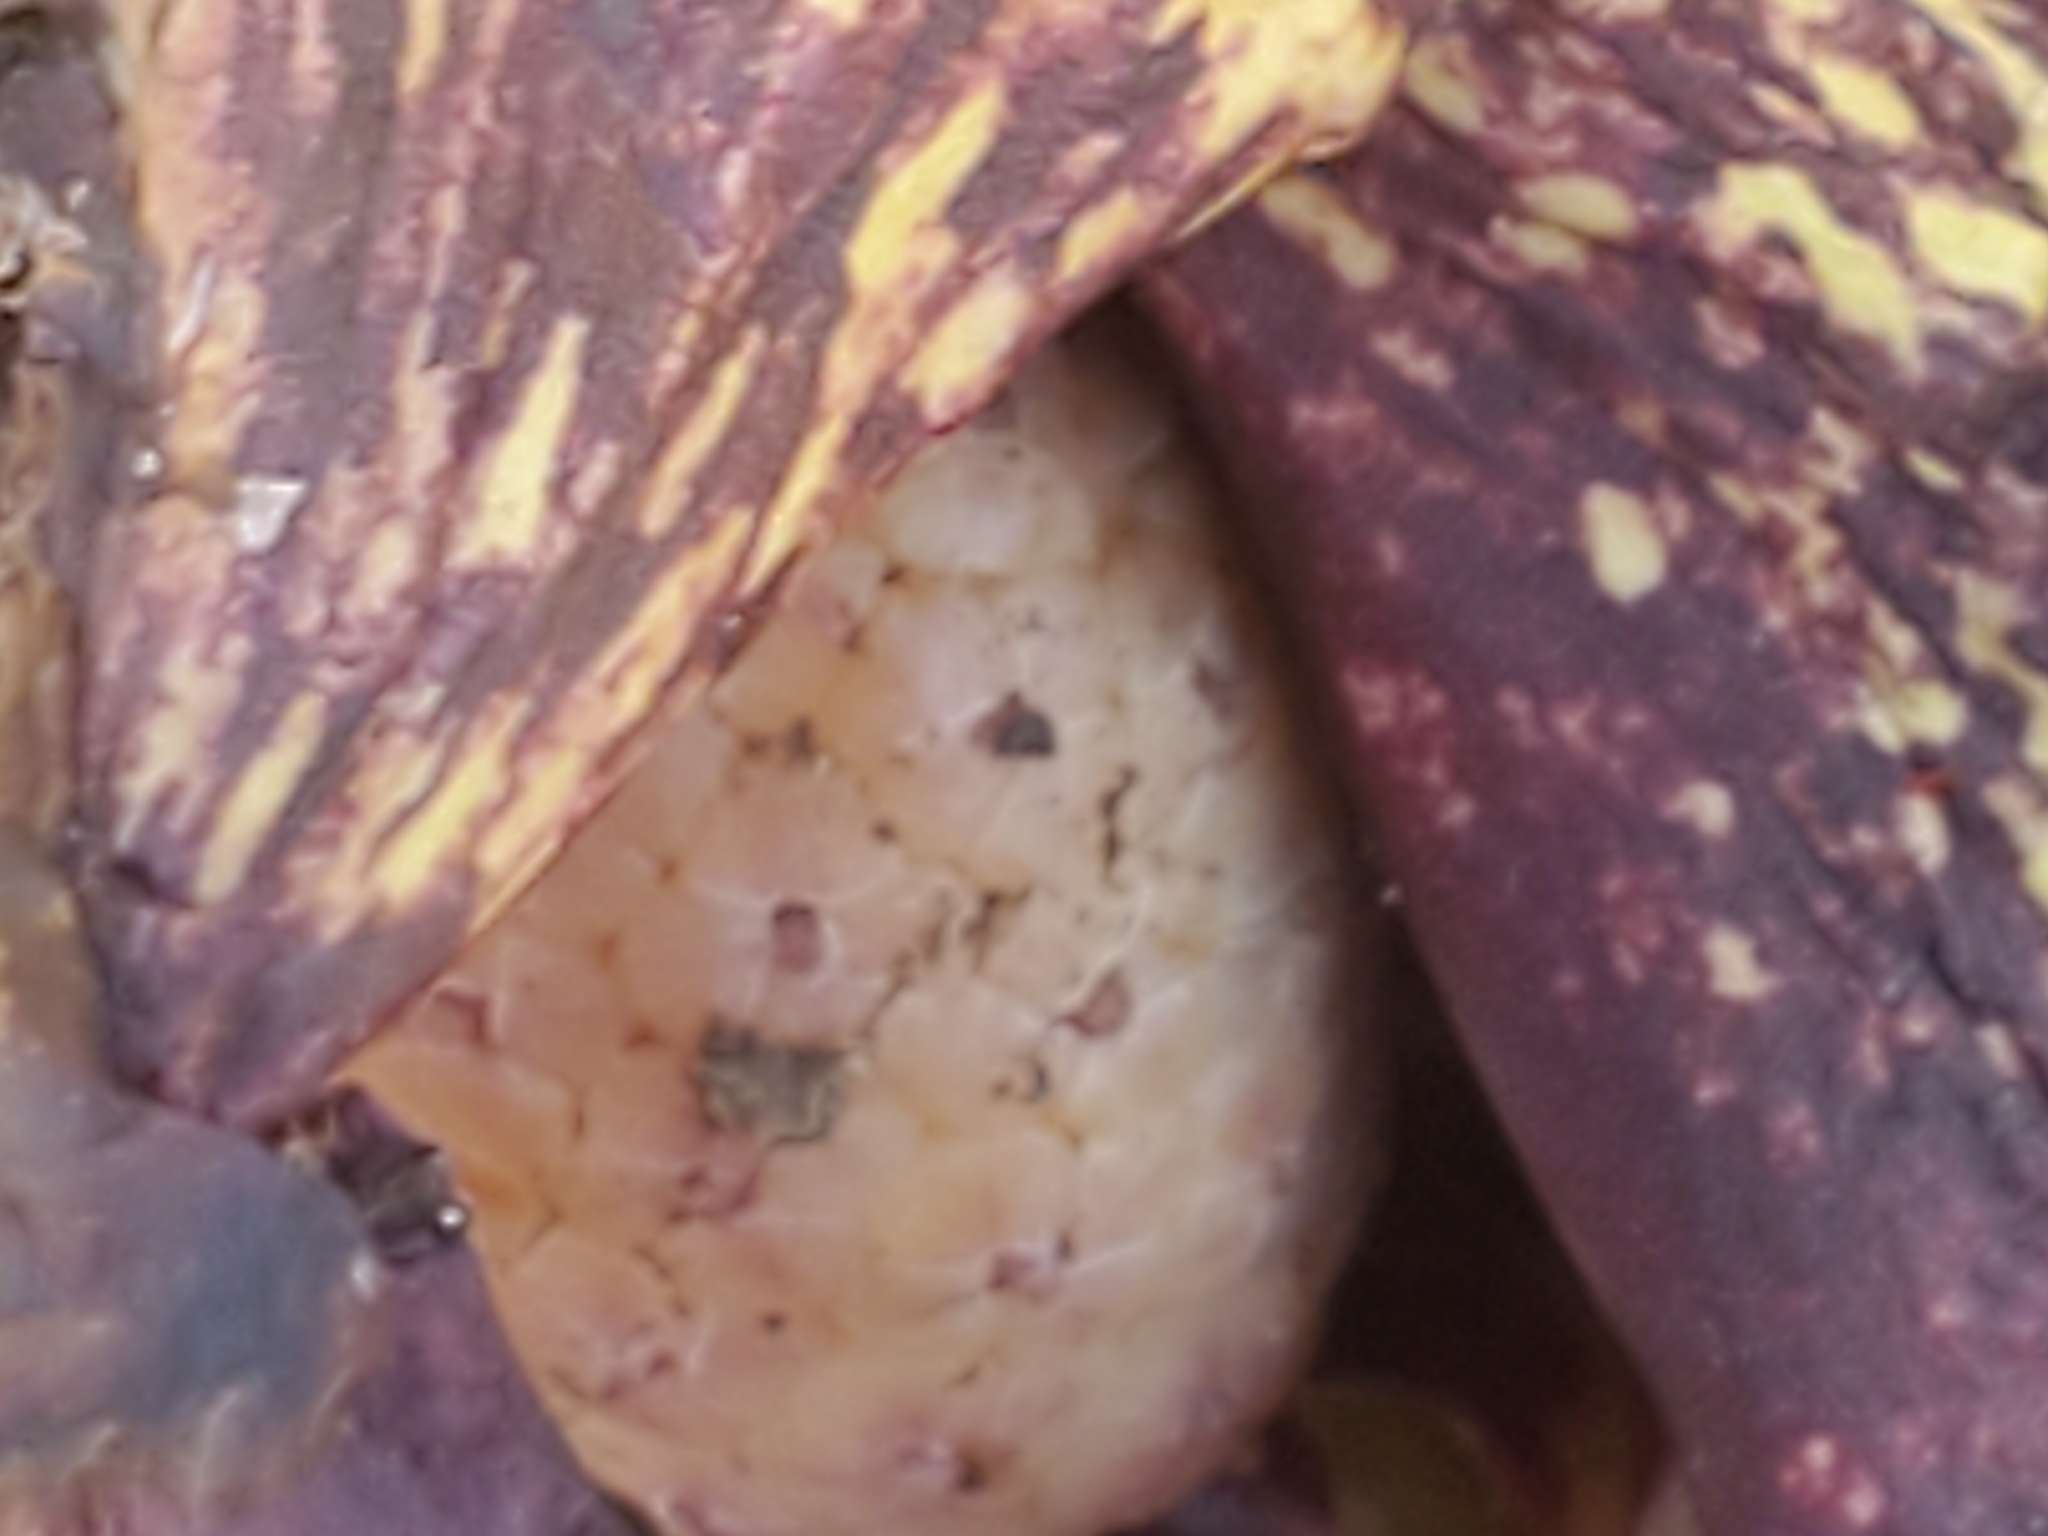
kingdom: Plantae
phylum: Tracheophyta
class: Liliopsida
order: Alismatales
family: Araceae
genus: Symplocarpus
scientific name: Symplocarpus foetidus
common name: Eastern skunk cabbage
